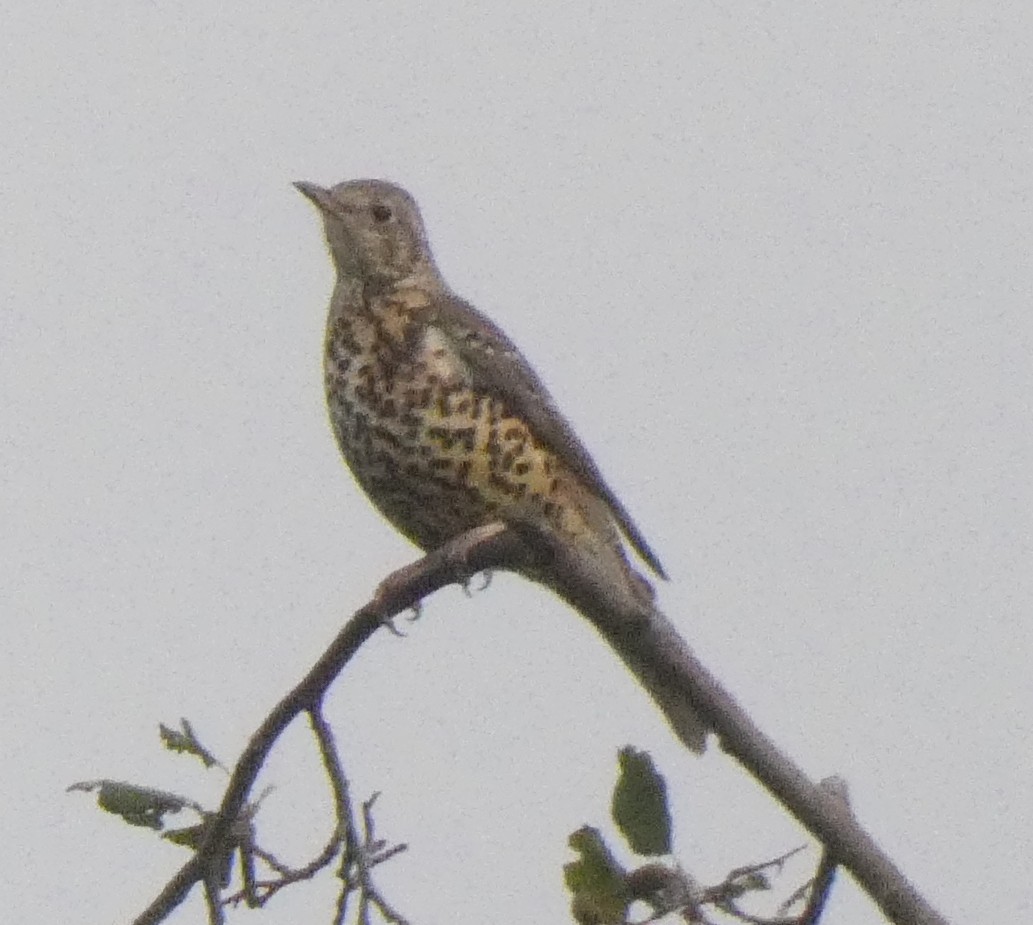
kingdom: Animalia
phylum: Chordata
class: Aves
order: Passeriformes
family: Turdidae
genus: Turdus
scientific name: Turdus viscivorus
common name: Mistle thrush
